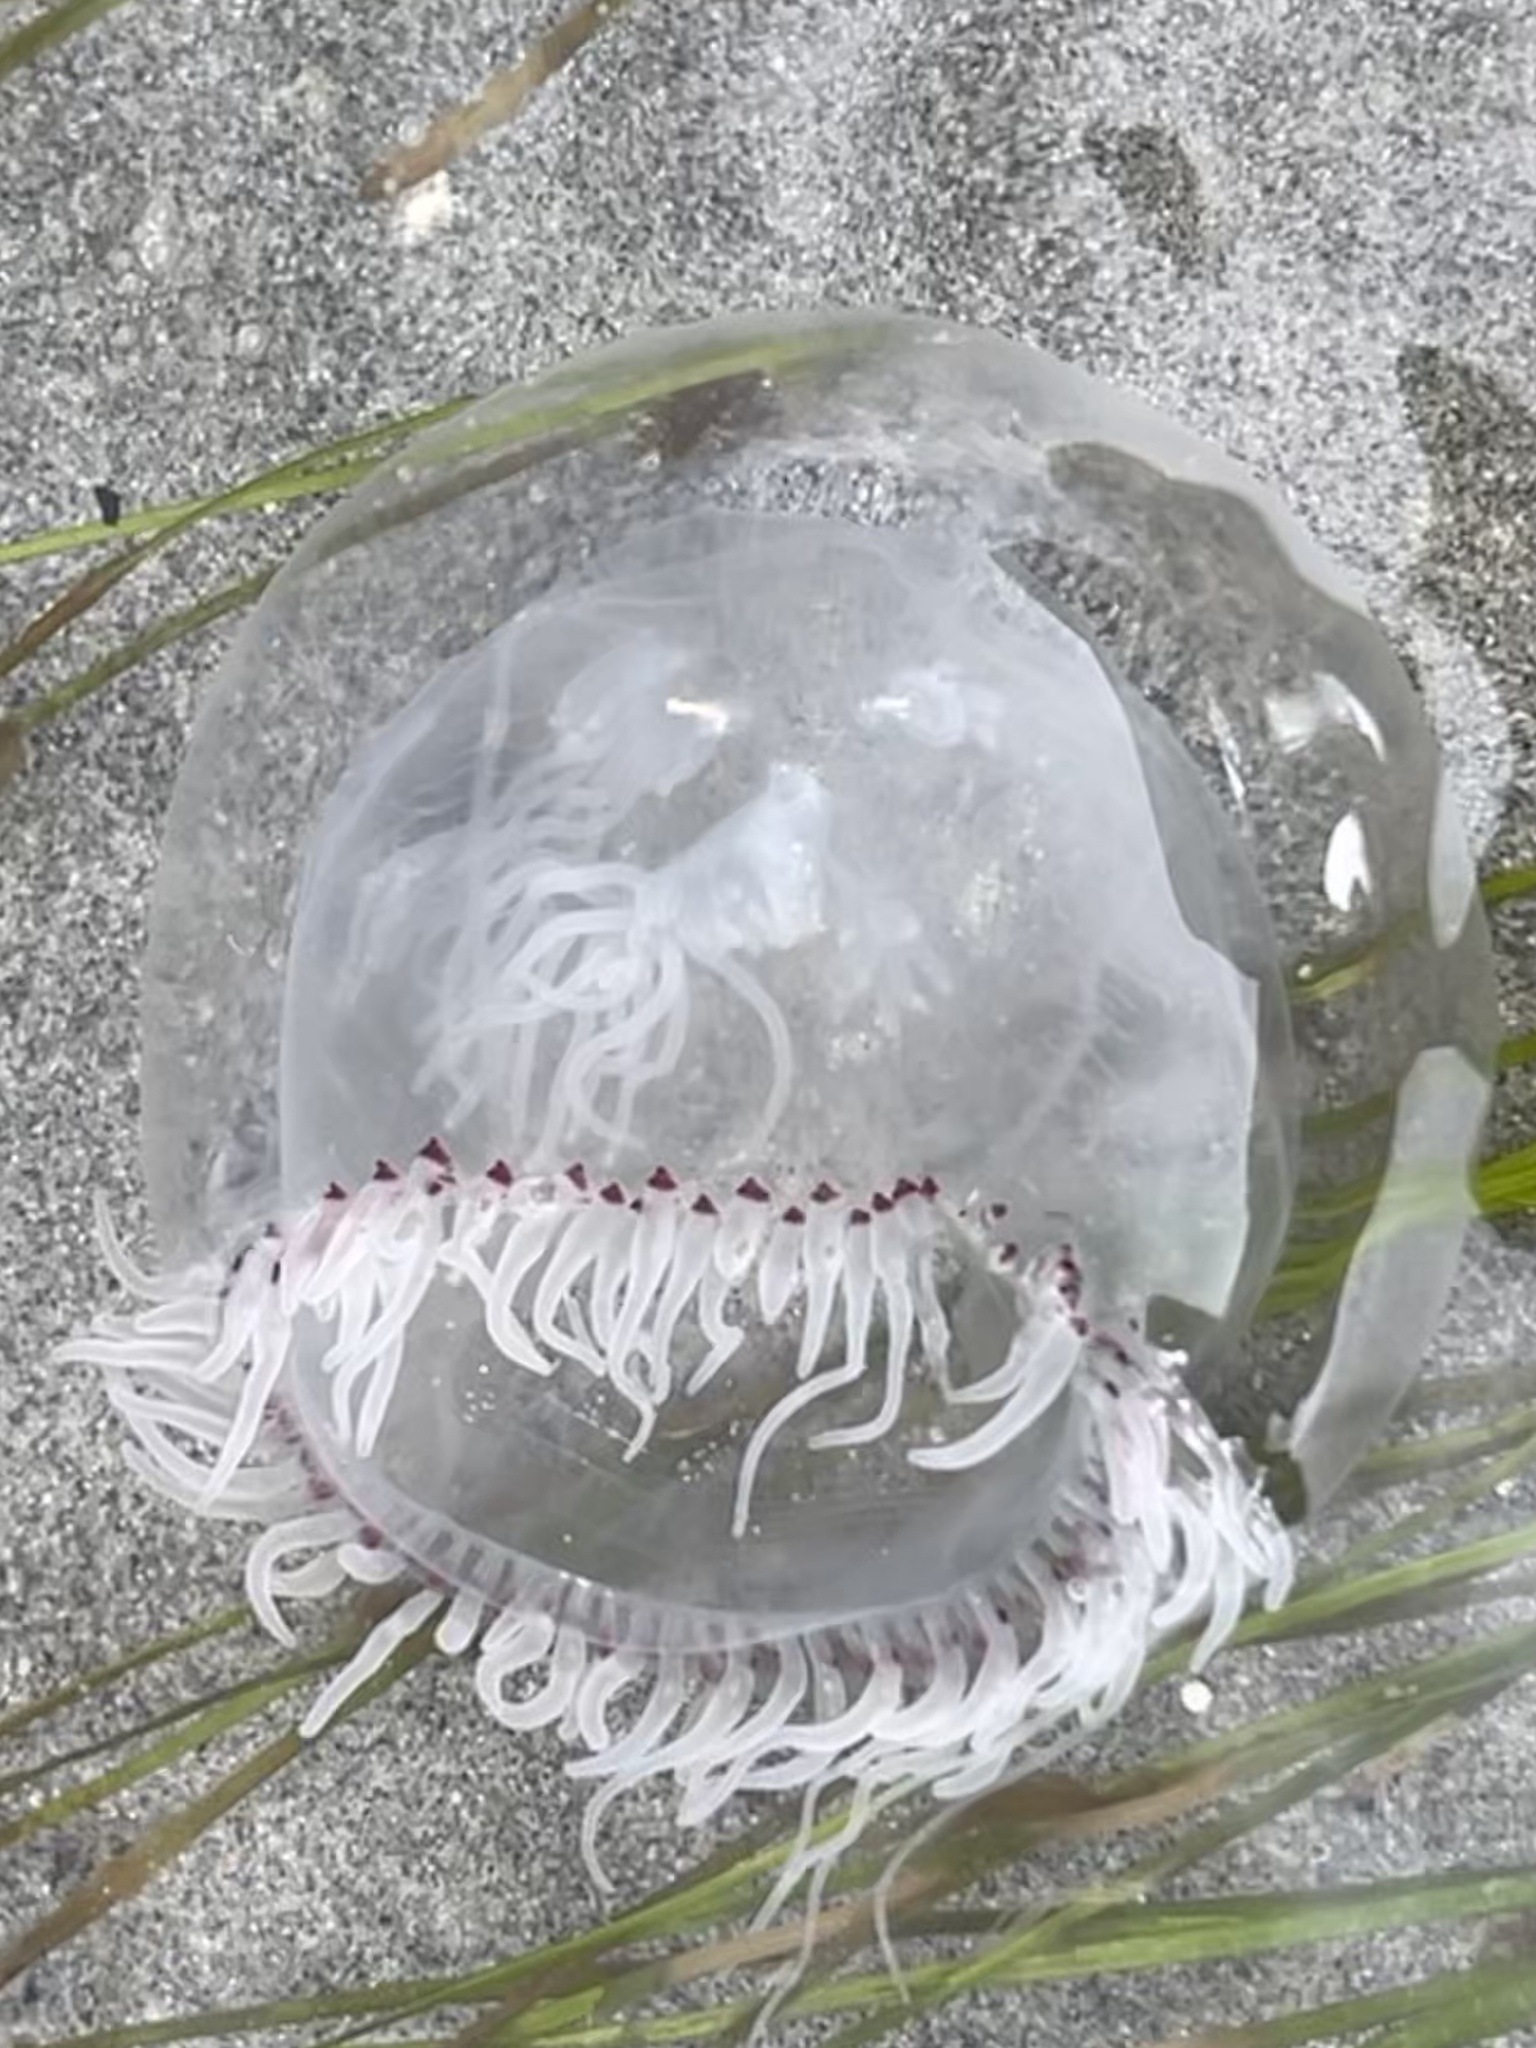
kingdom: Animalia
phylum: Cnidaria
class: Hydrozoa
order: Anthoathecata
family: Corynidae
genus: Polyorchis
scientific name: Polyorchis penicillatus
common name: Penicillate jellyfish
